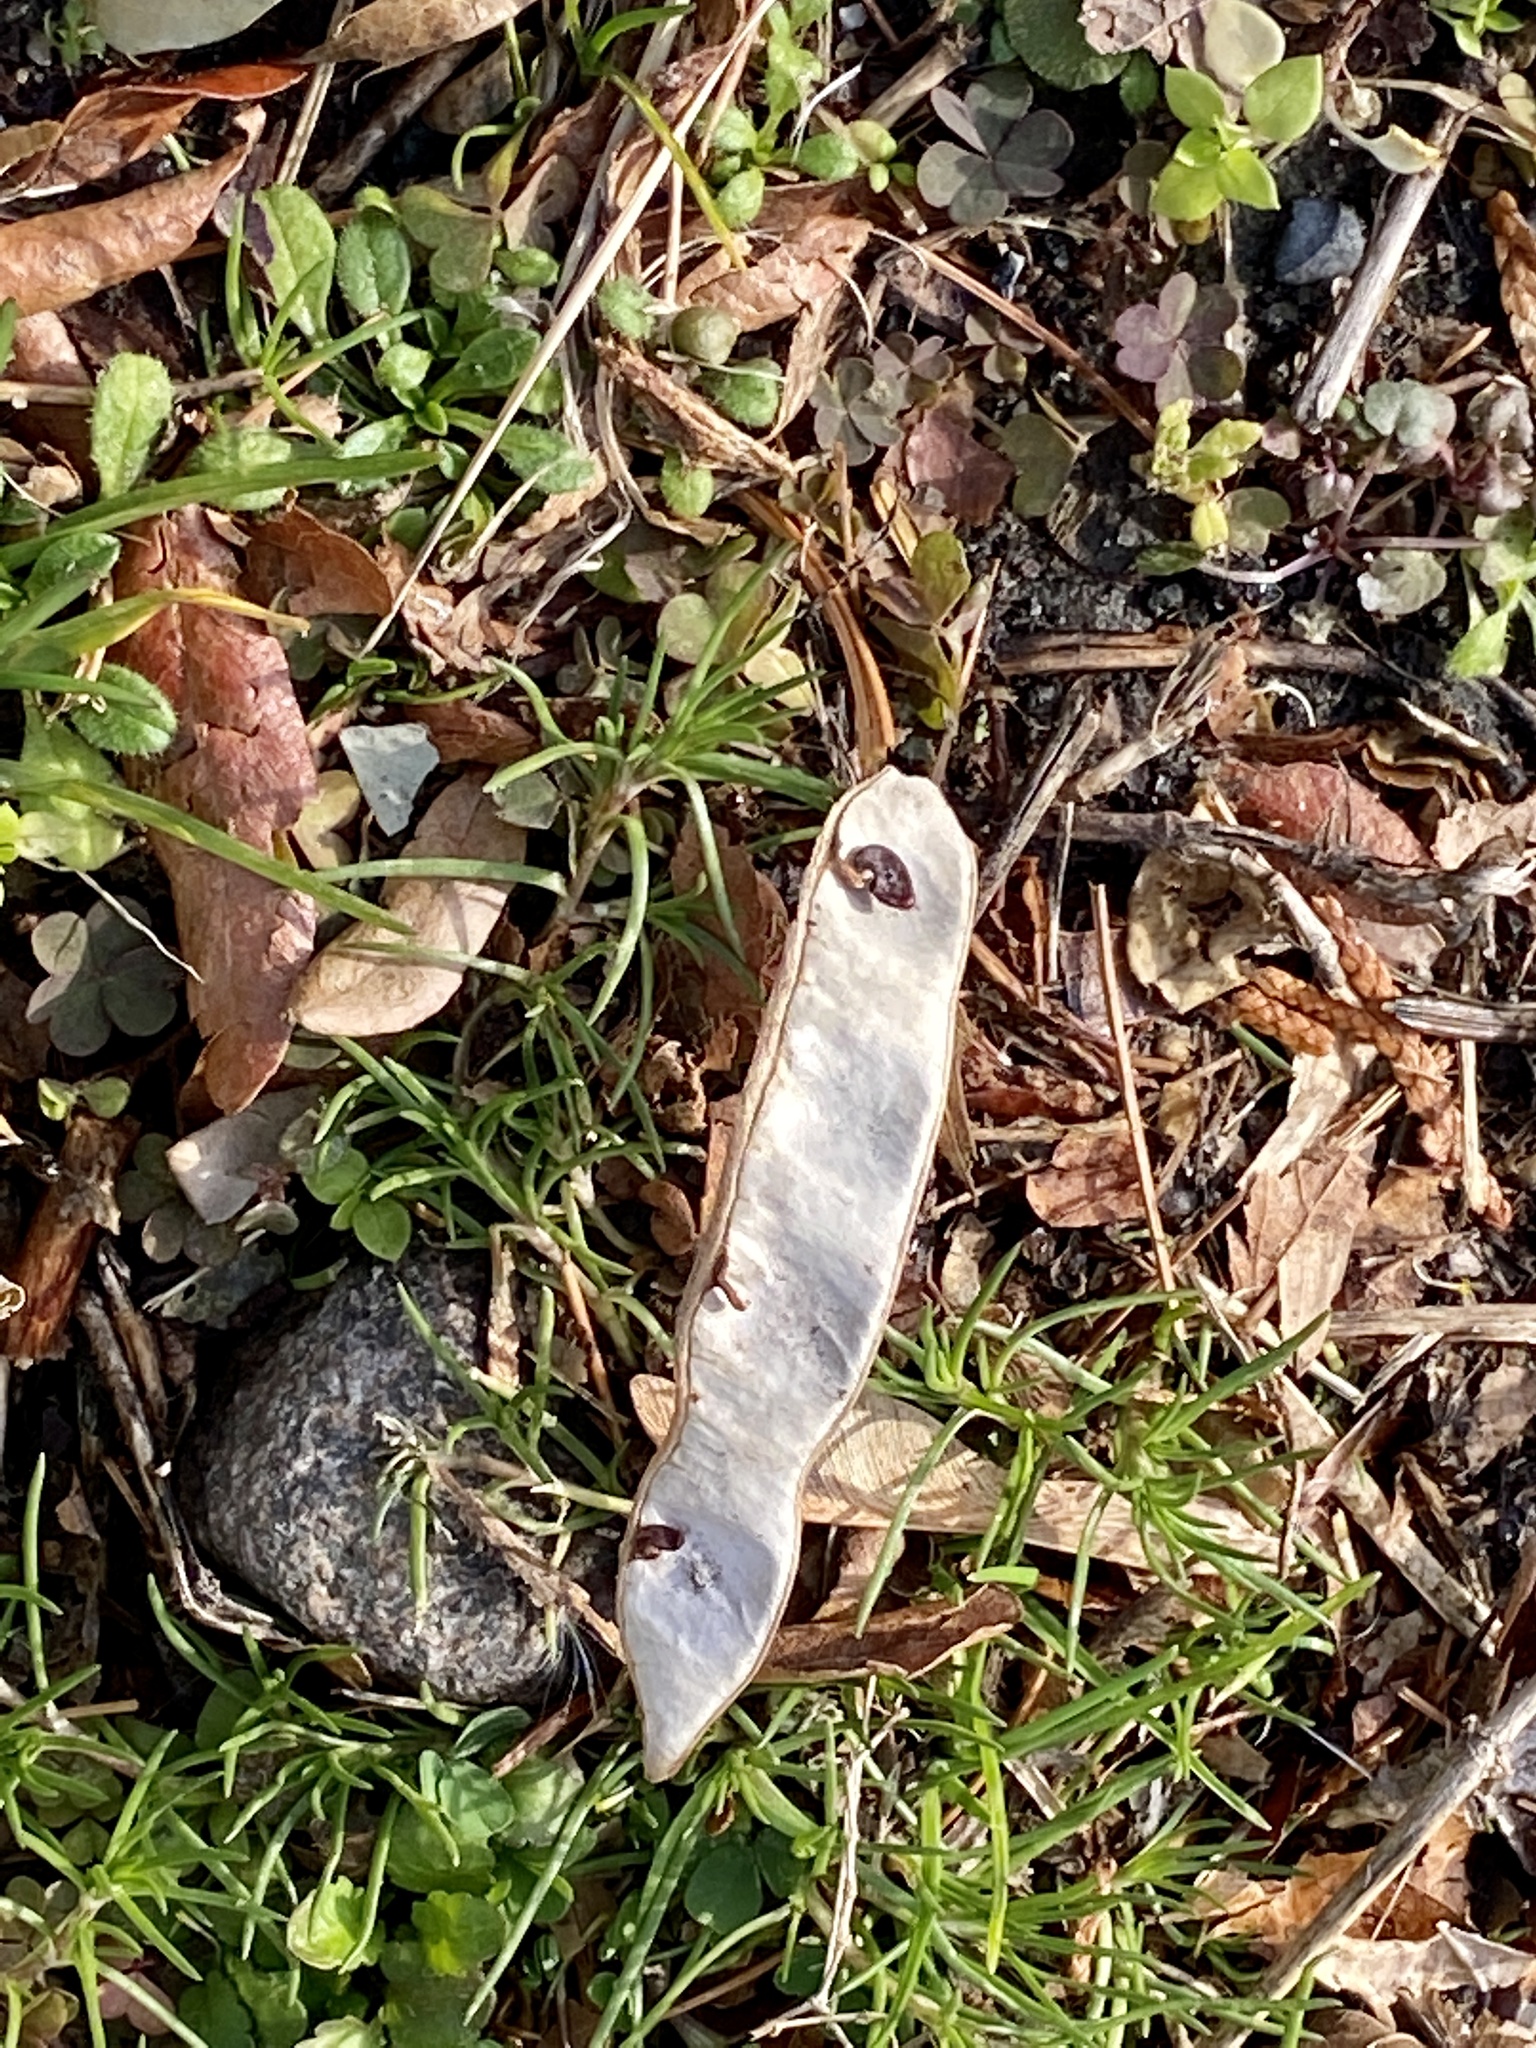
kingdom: Plantae
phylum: Tracheophyta
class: Magnoliopsida
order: Fabales
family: Fabaceae
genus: Robinia
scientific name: Robinia pseudoacacia
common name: Black locust
